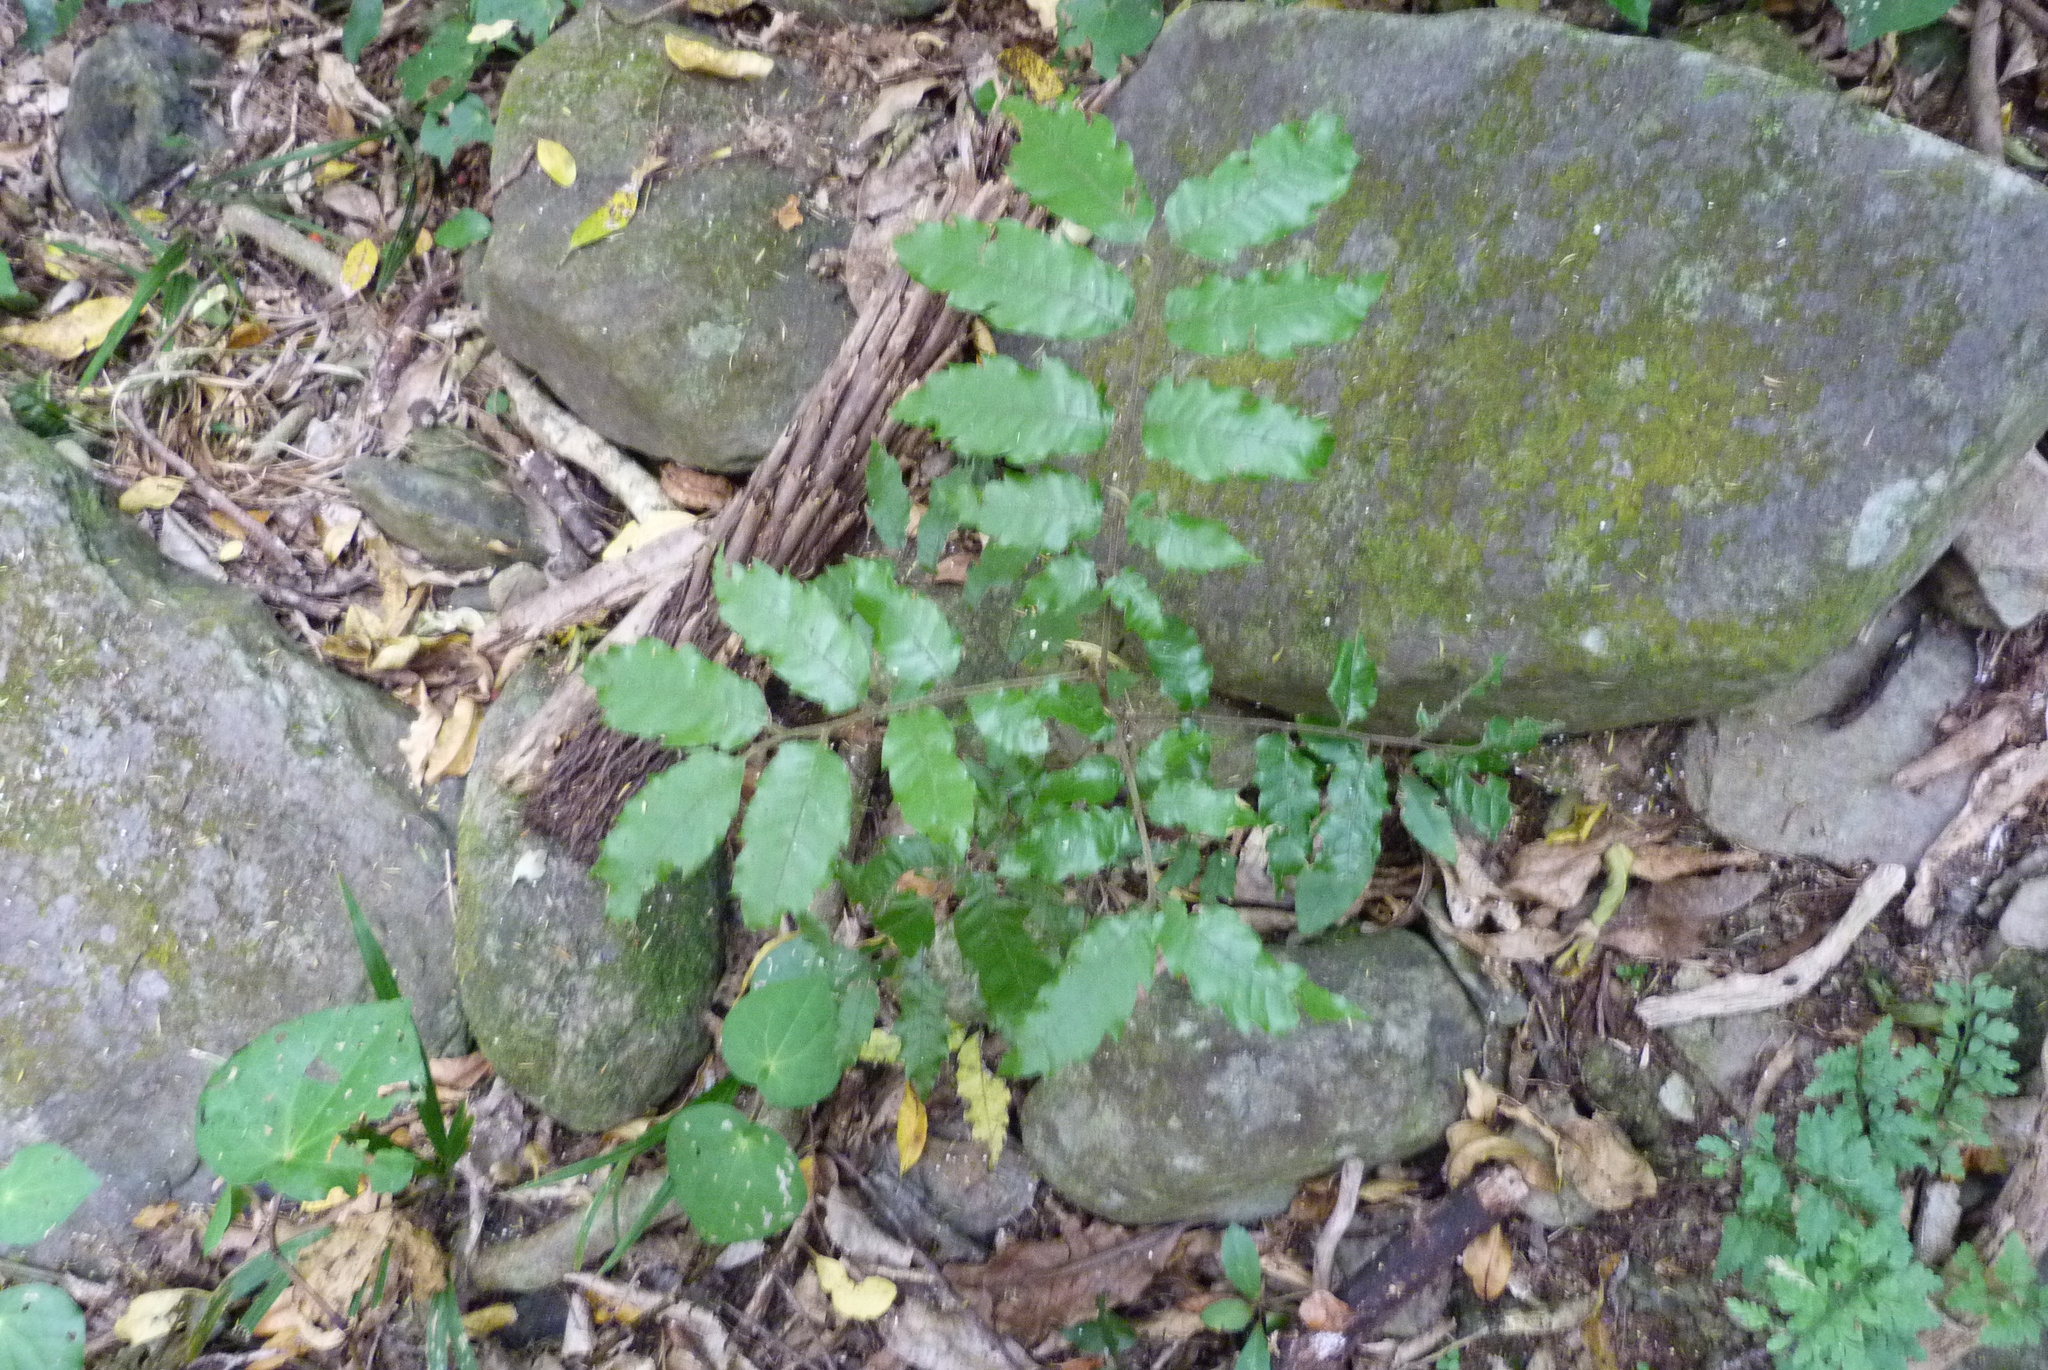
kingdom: Plantae
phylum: Tracheophyta
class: Magnoliopsida
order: Sapindales
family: Sapindaceae
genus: Alectryon
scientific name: Alectryon excelsus
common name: Three kings titoki
